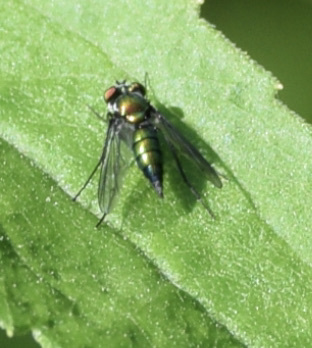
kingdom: Animalia
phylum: Arthropoda
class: Insecta
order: Diptera
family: Dolichopodidae
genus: Condylostylus
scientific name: Condylostylus patibulatus
